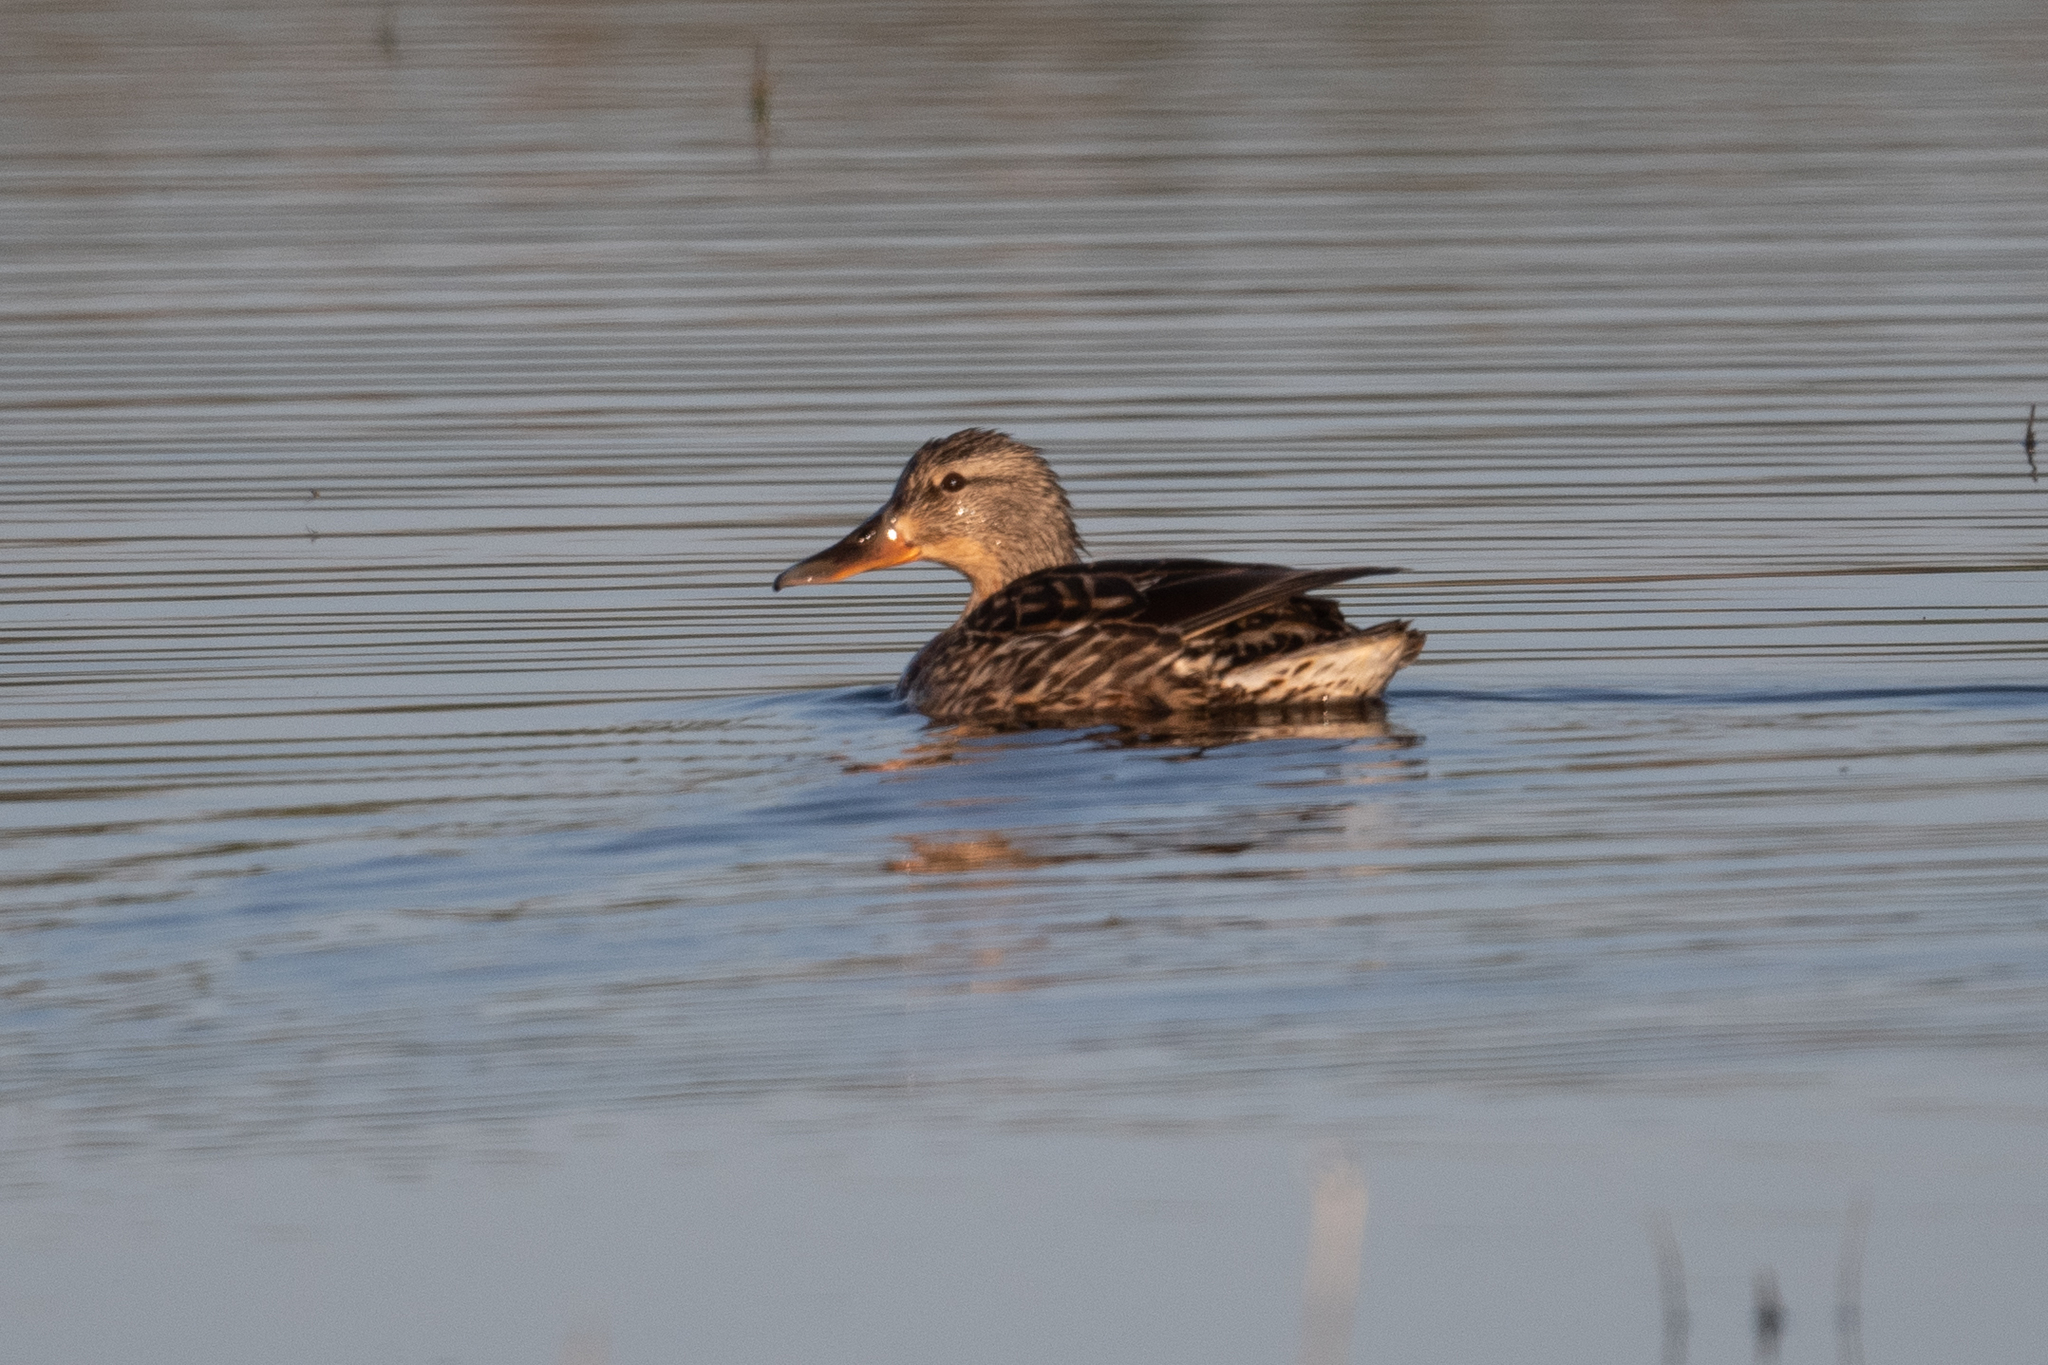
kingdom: Animalia
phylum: Chordata
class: Aves
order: Anseriformes
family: Anatidae
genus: Mareca
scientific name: Mareca strepera
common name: Gadwall
